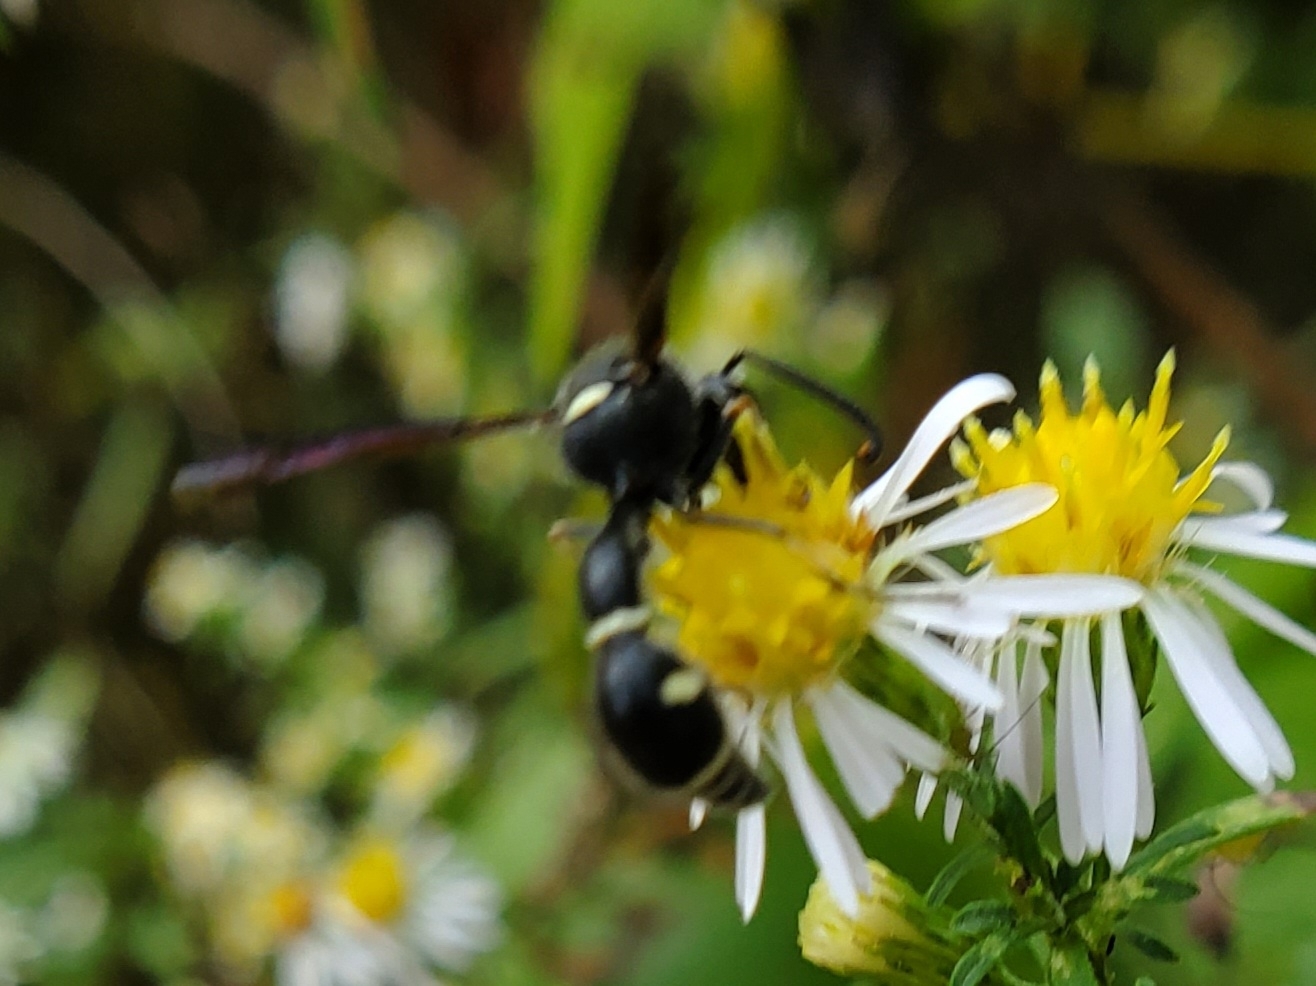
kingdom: Animalia
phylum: Arthropoda
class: Insecta
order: Hymenoptera
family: Vespidae
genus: Eumenes
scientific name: Eumenes fraternus
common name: Fraternal potter wasp
